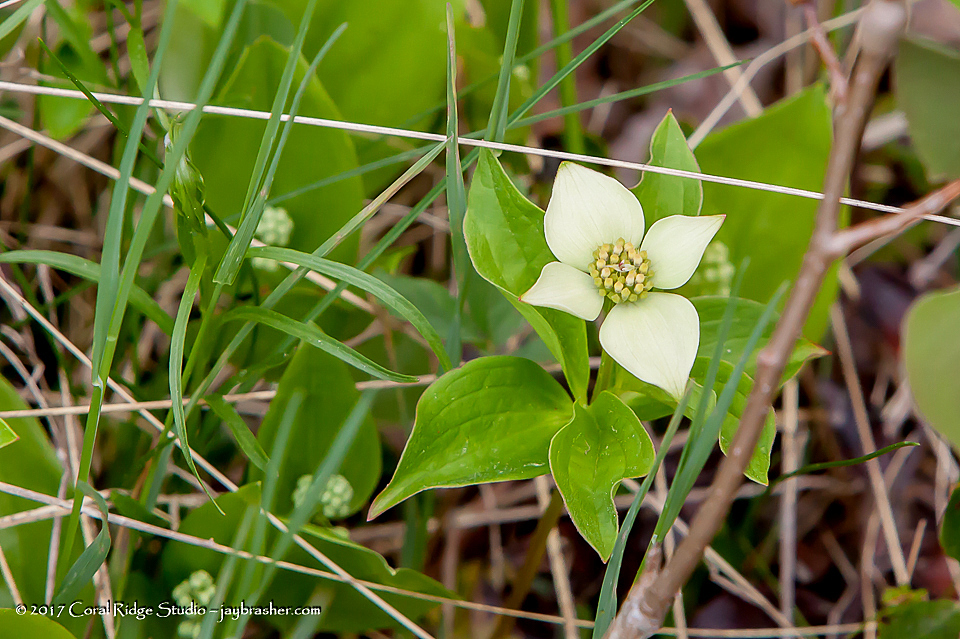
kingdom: Plantae
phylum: Tracheophyta
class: Magnoliopsida
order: Cornales
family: Cornaceae
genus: Cornus
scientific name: Cornus canadensis
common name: Creeping dogwood
